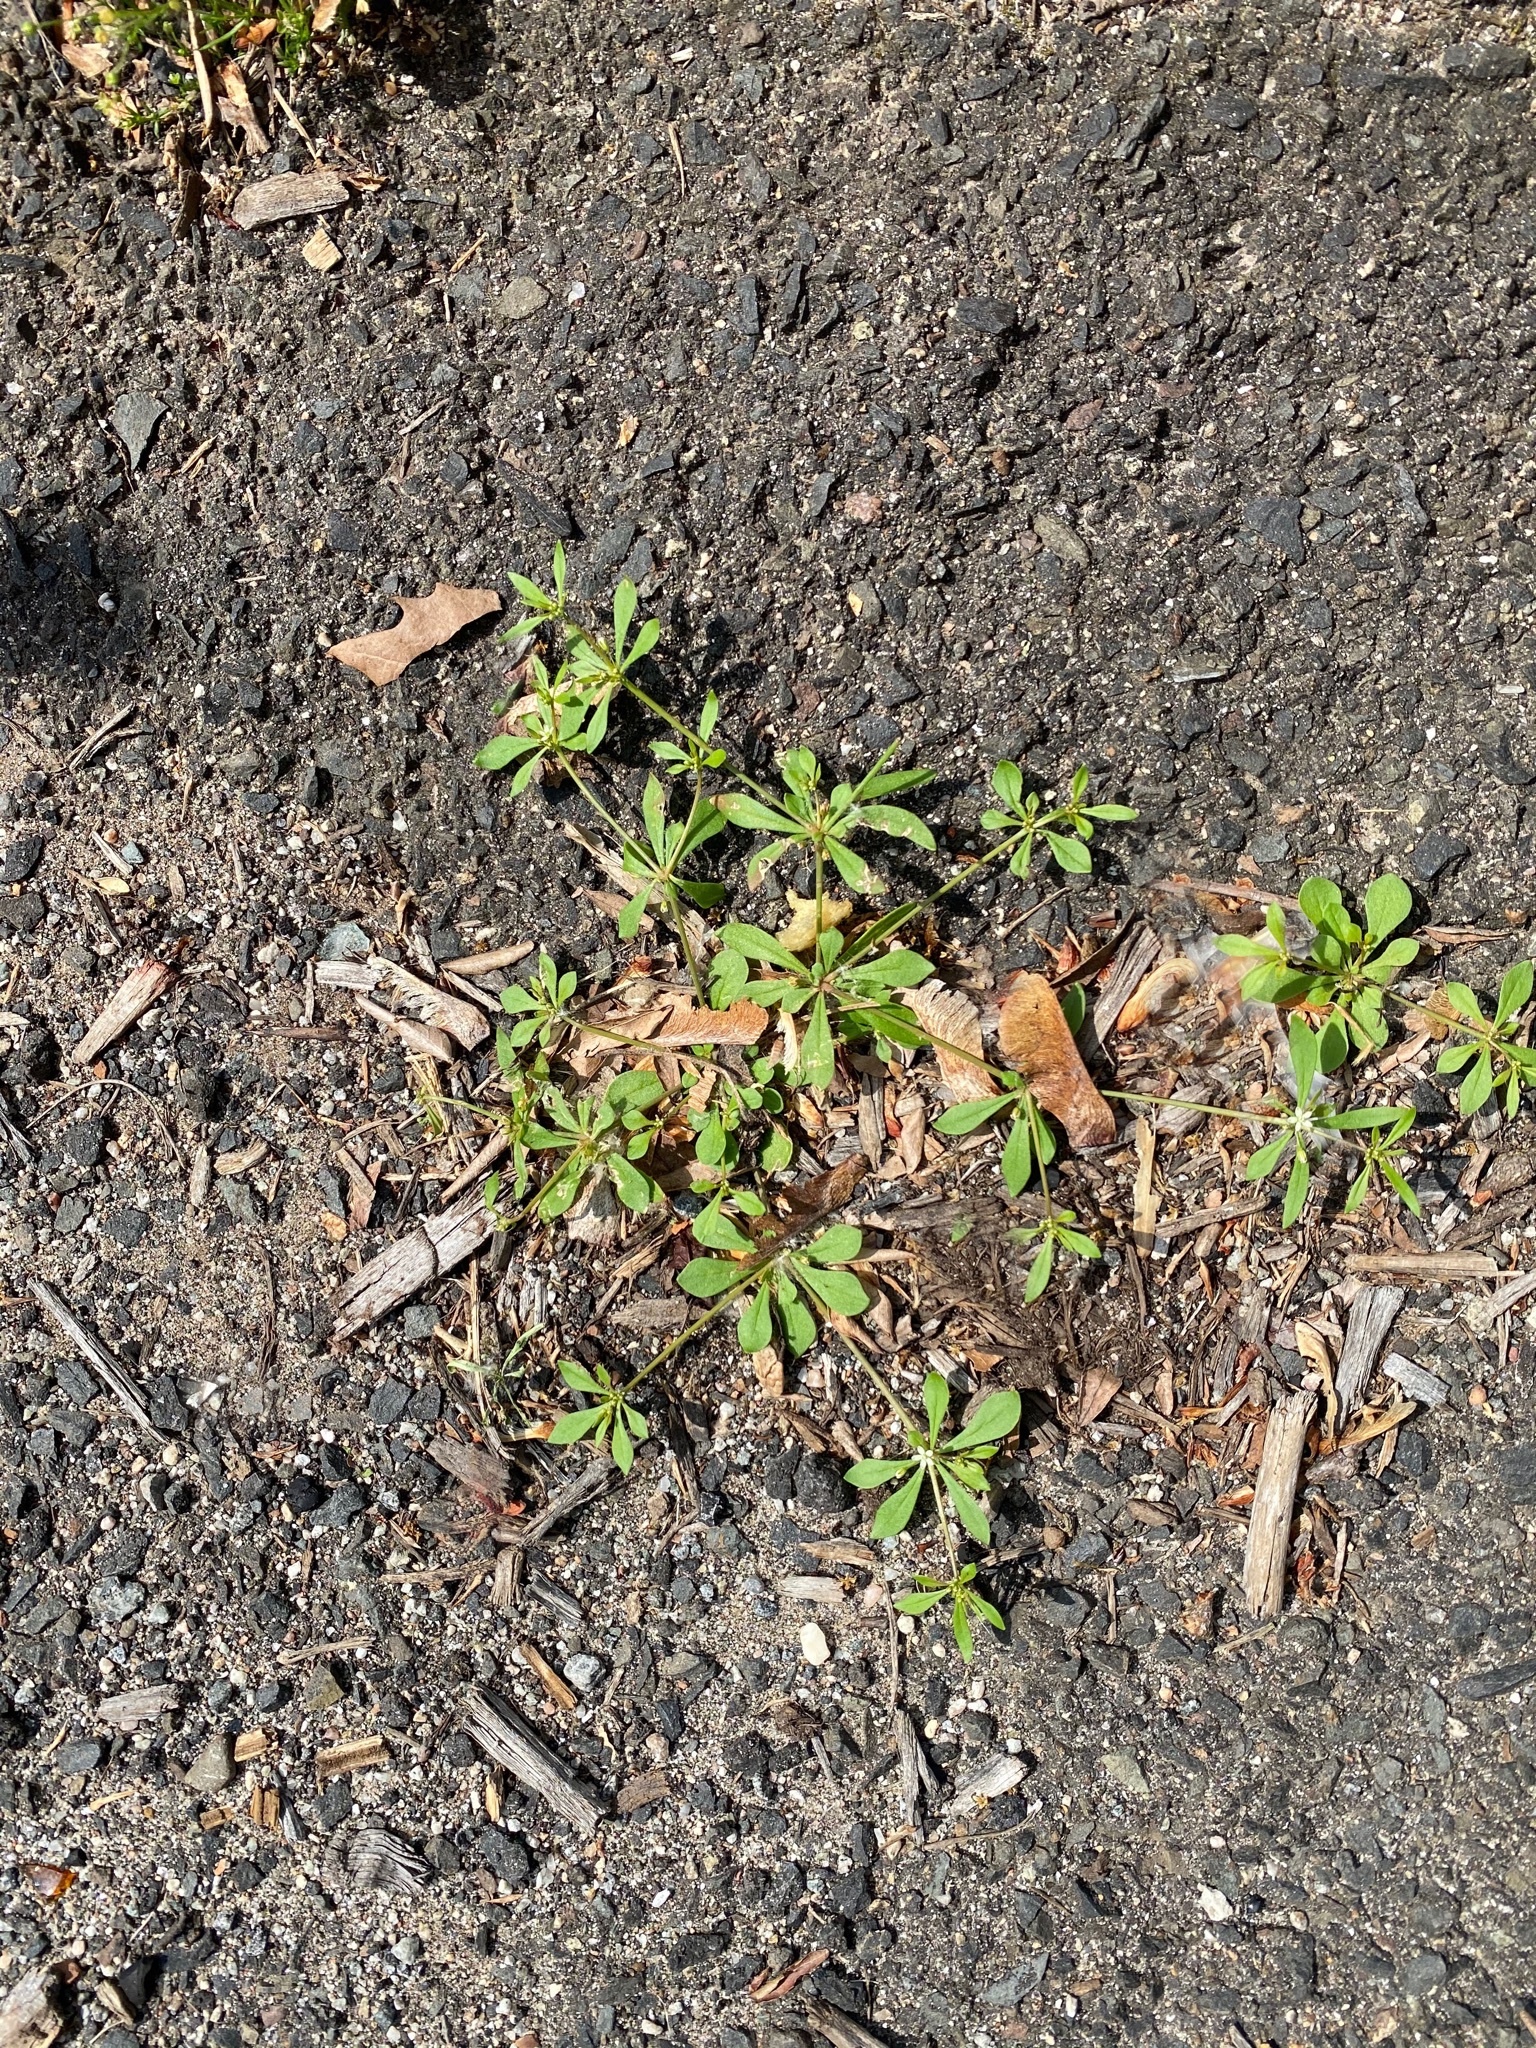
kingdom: Plantae
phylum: Tracheophyta
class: Magnoliopsida
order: Caryophyllales
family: Molluginaceae
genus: Mollugo
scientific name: Mollugo verticillata
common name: Green carpetweed
